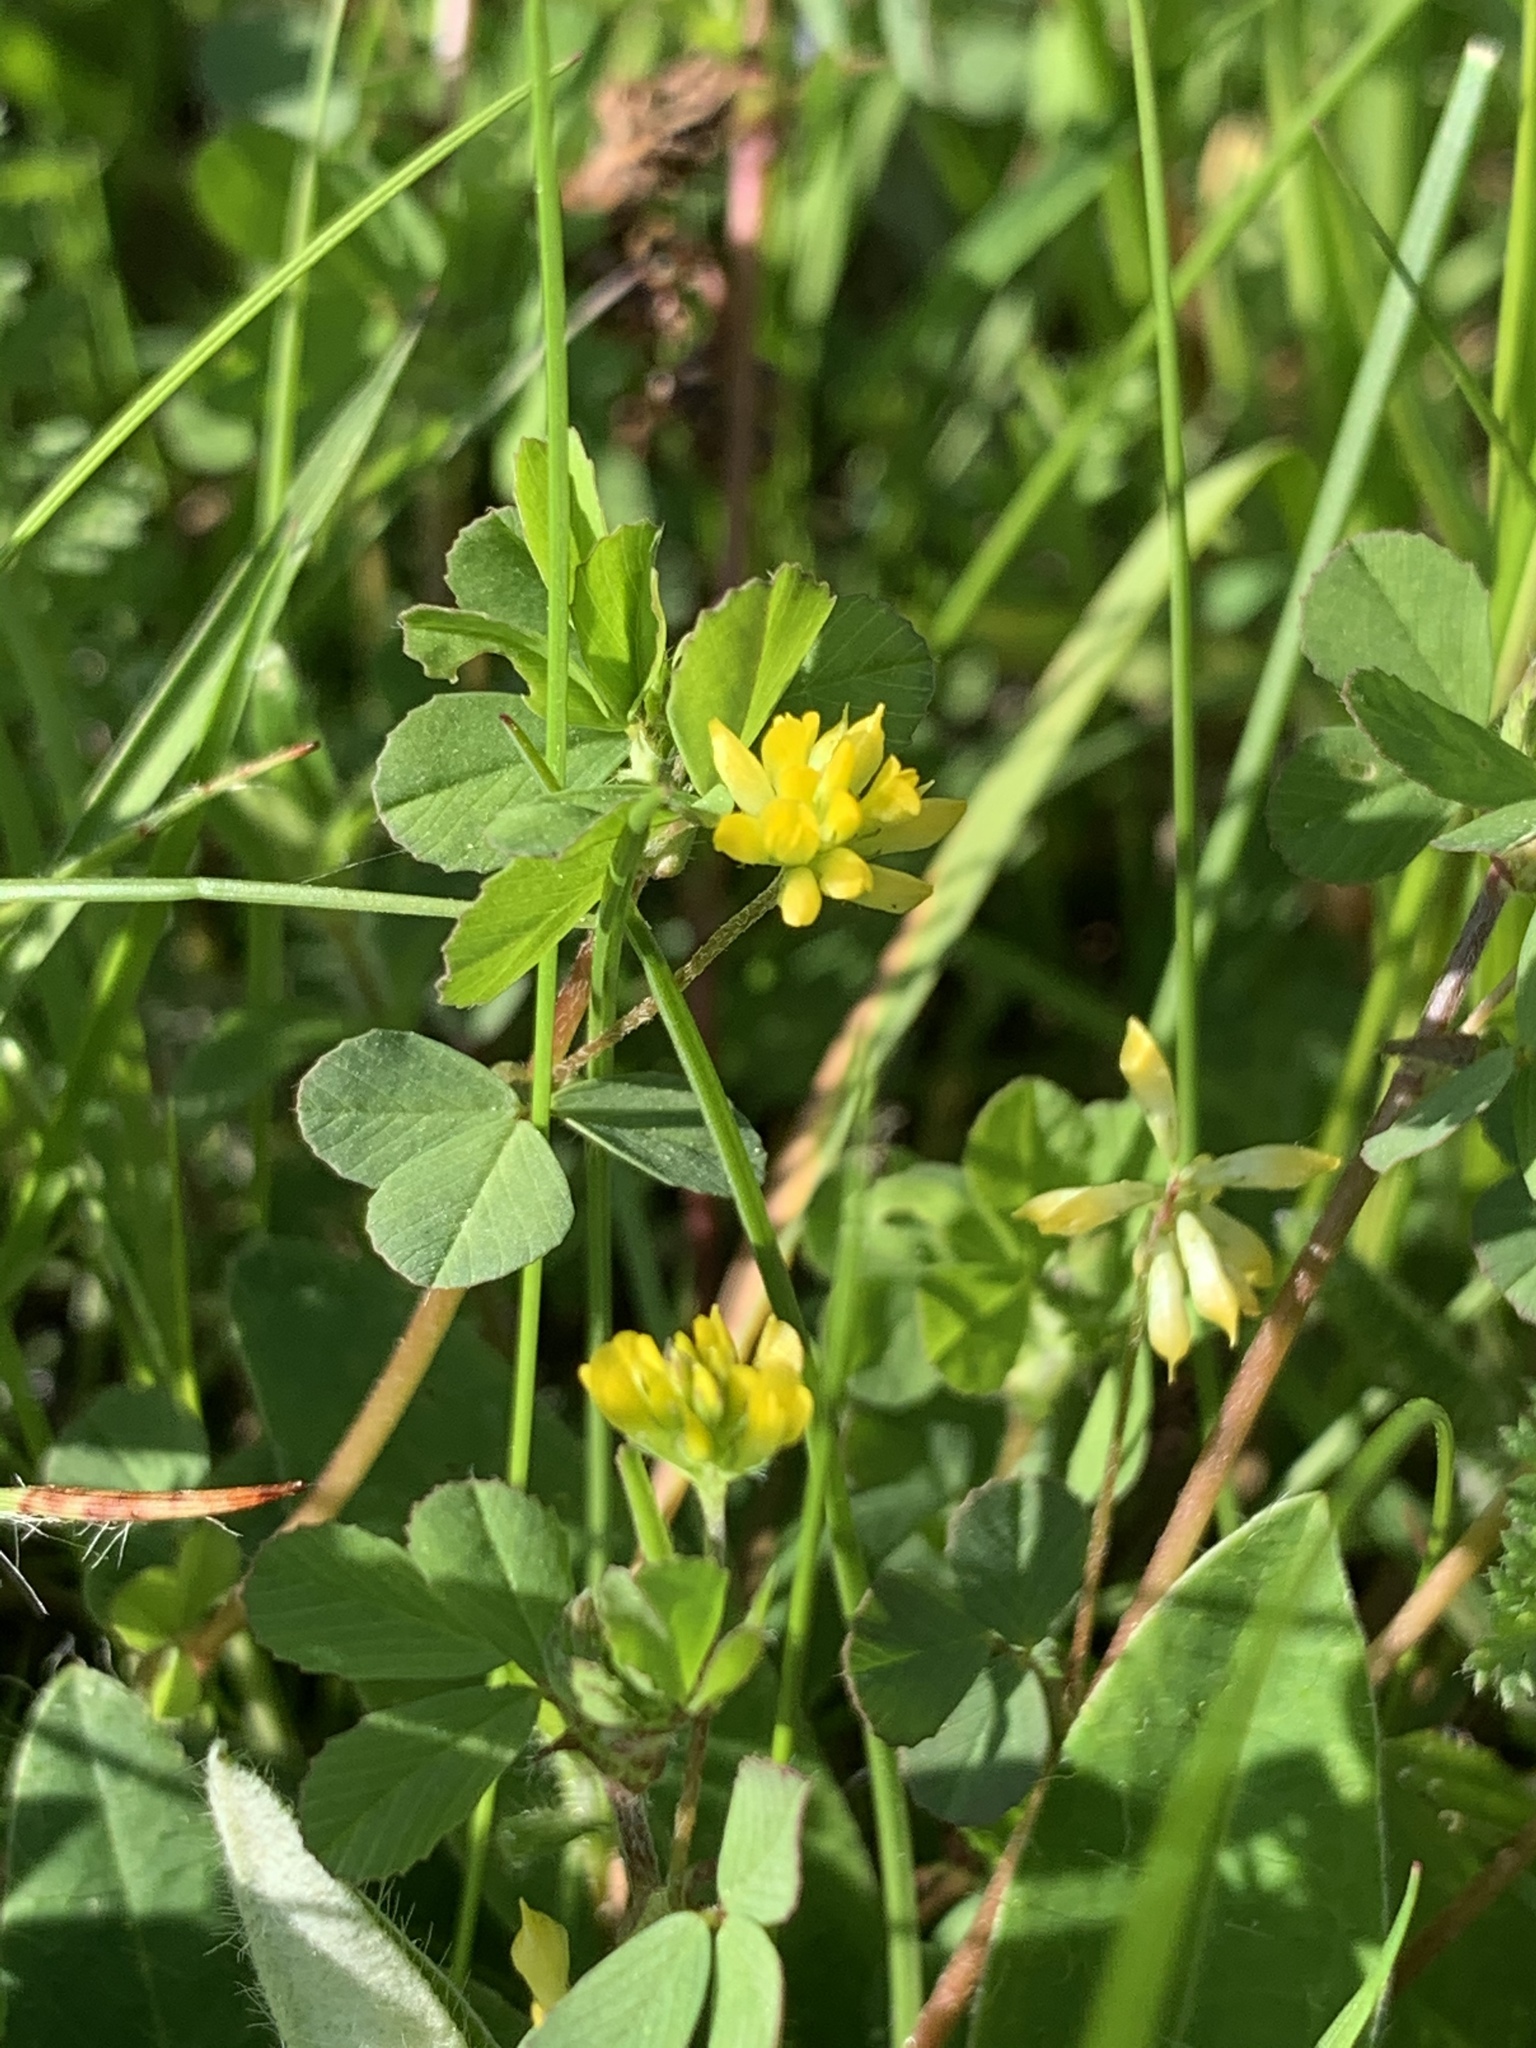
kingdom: Plantae
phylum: Tracheophyta
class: Magnoliopsida
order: Fabales
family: Fabaceae
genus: Trifolium
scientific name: Trifolium dubium
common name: Suckling clover
